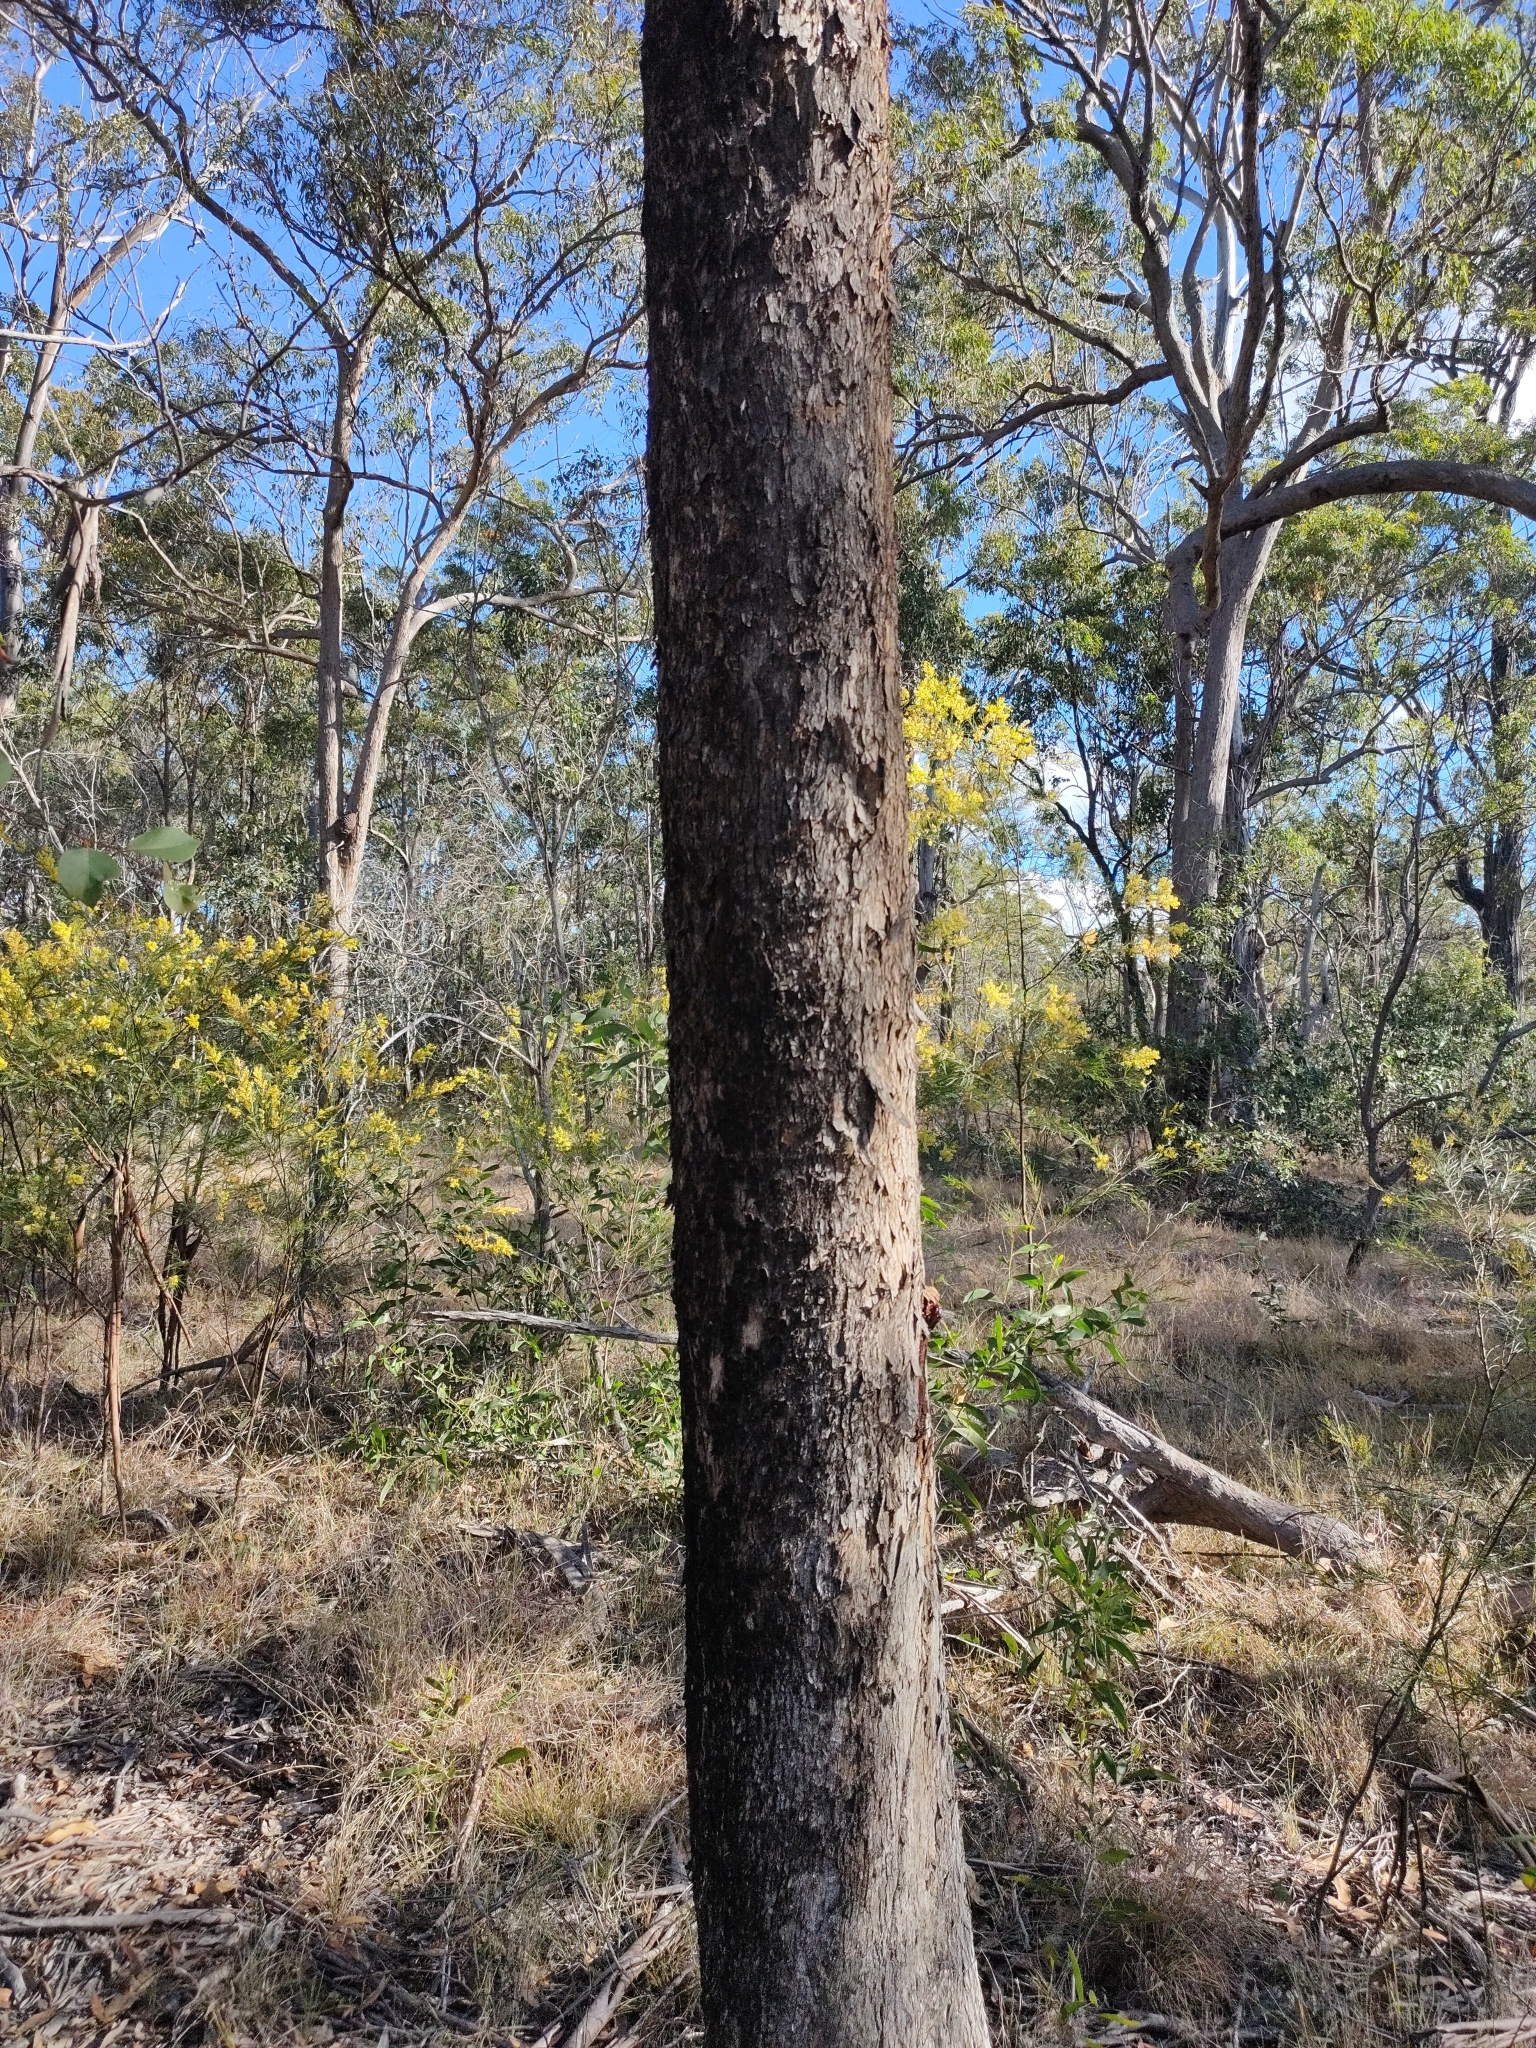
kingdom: Plantae
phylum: Tracheophyta
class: Magnoliopsida
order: Myrtales
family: Myrtaceae
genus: Eucalyptus
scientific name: Eucalyptus moluccana
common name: Grey-box
